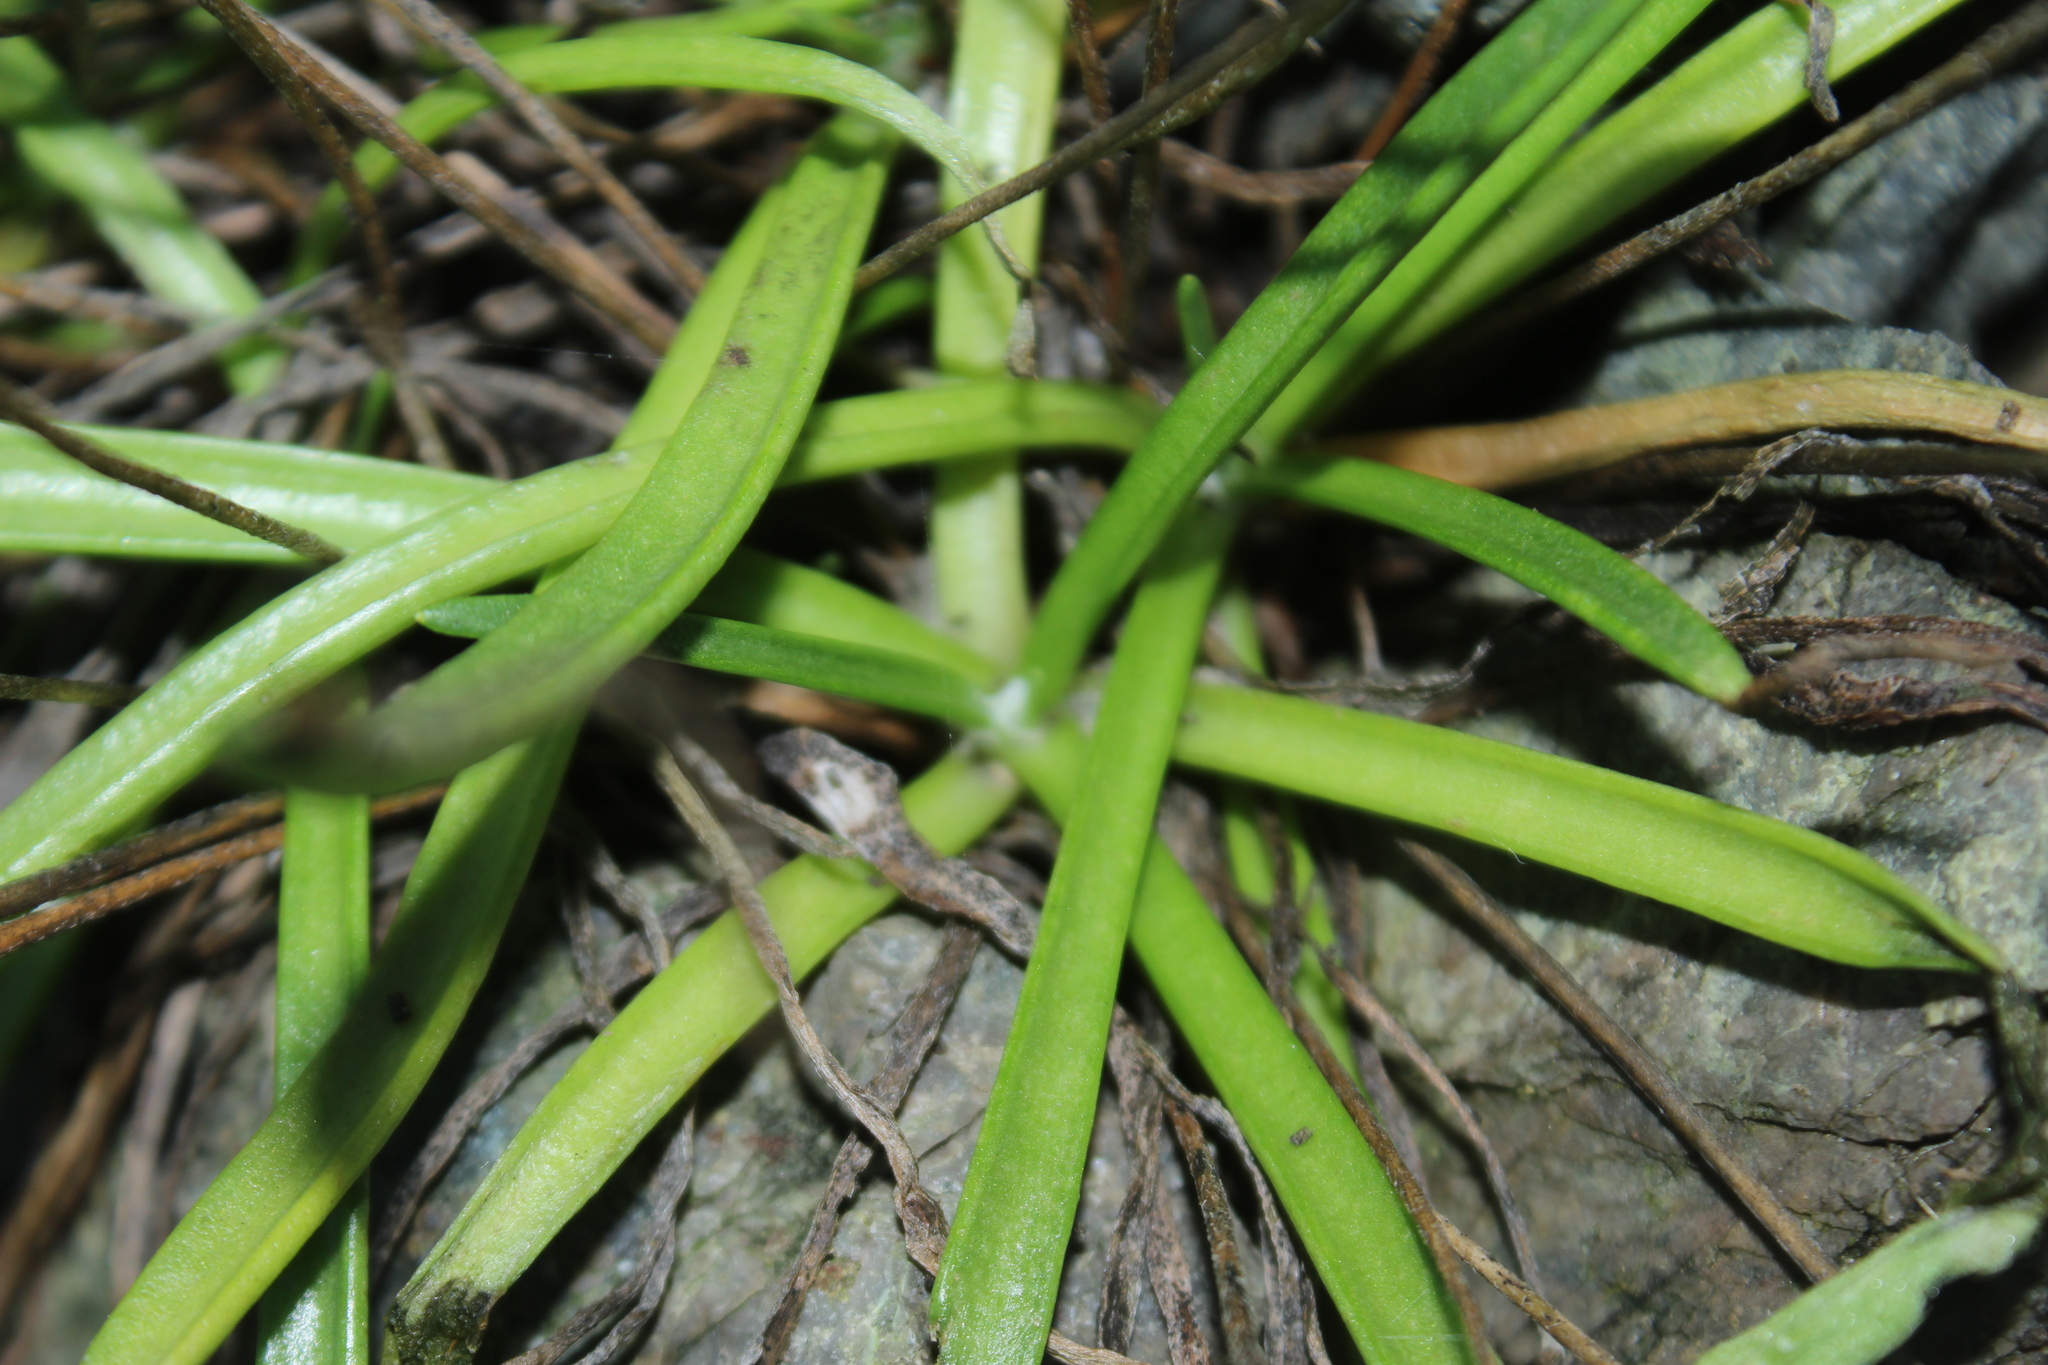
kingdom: Plantae
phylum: Tracheophyta
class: Magnoliopsida
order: Lamiales
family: Plantaginaceae
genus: Plantago
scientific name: Plantago maritima
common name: Sea plantain
